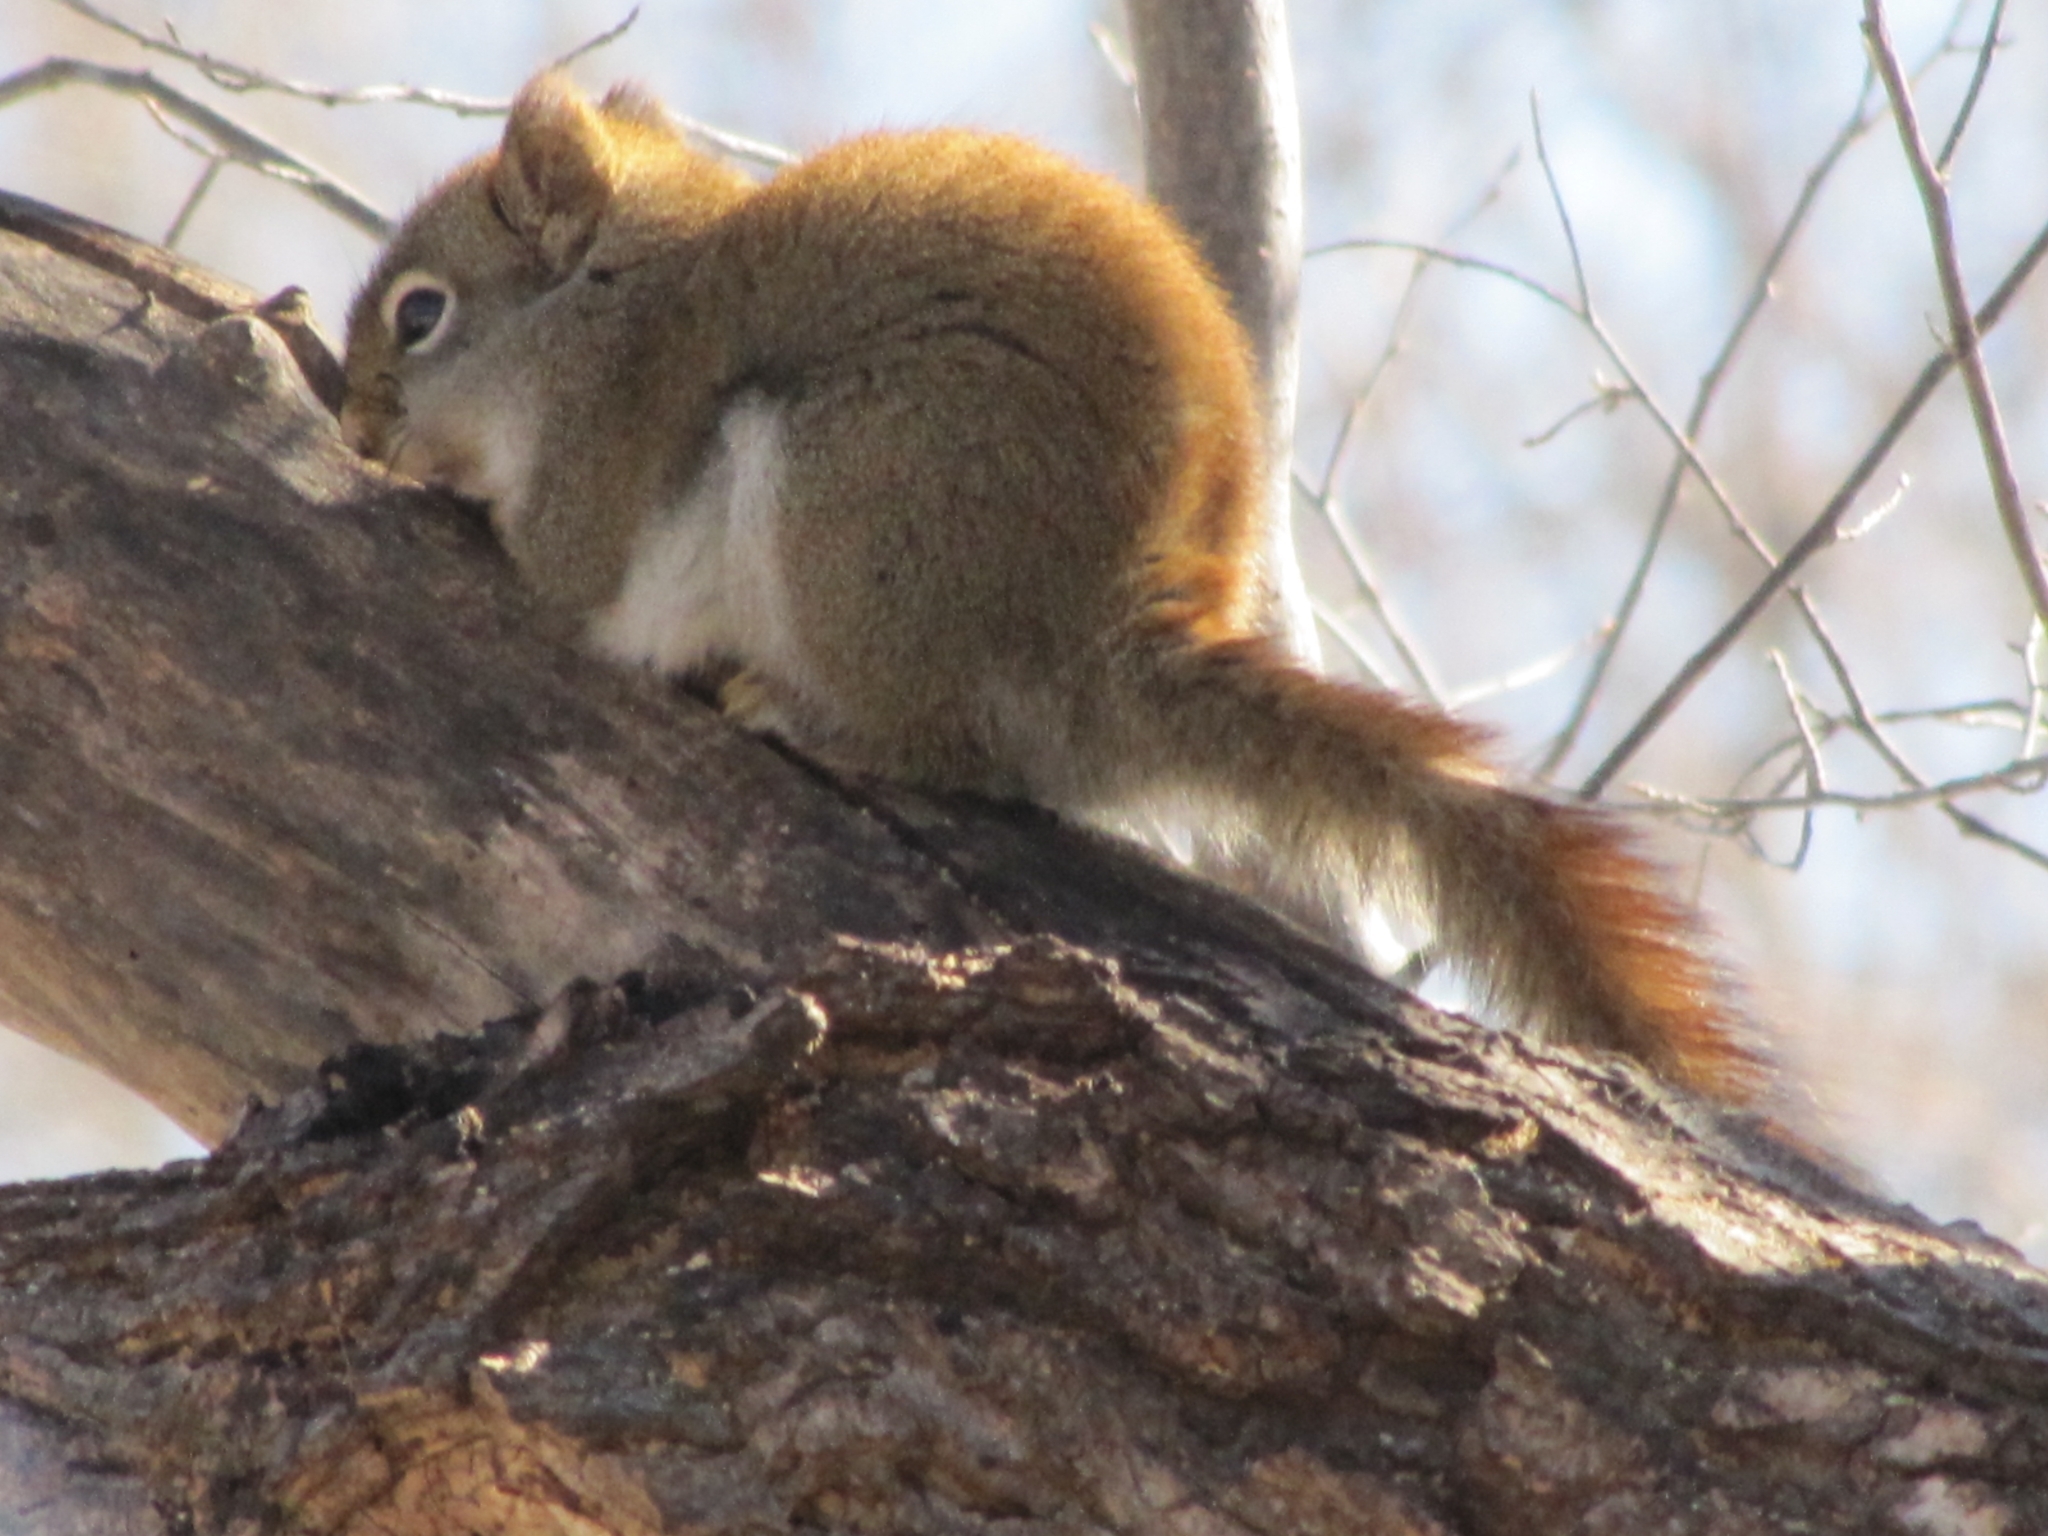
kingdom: Animalia
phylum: Chordata
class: Mammalia
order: Rodentia
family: Sciuridae
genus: Tamiasciurus
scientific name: Tamiasciurus hudsonicus
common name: Red squirrel
